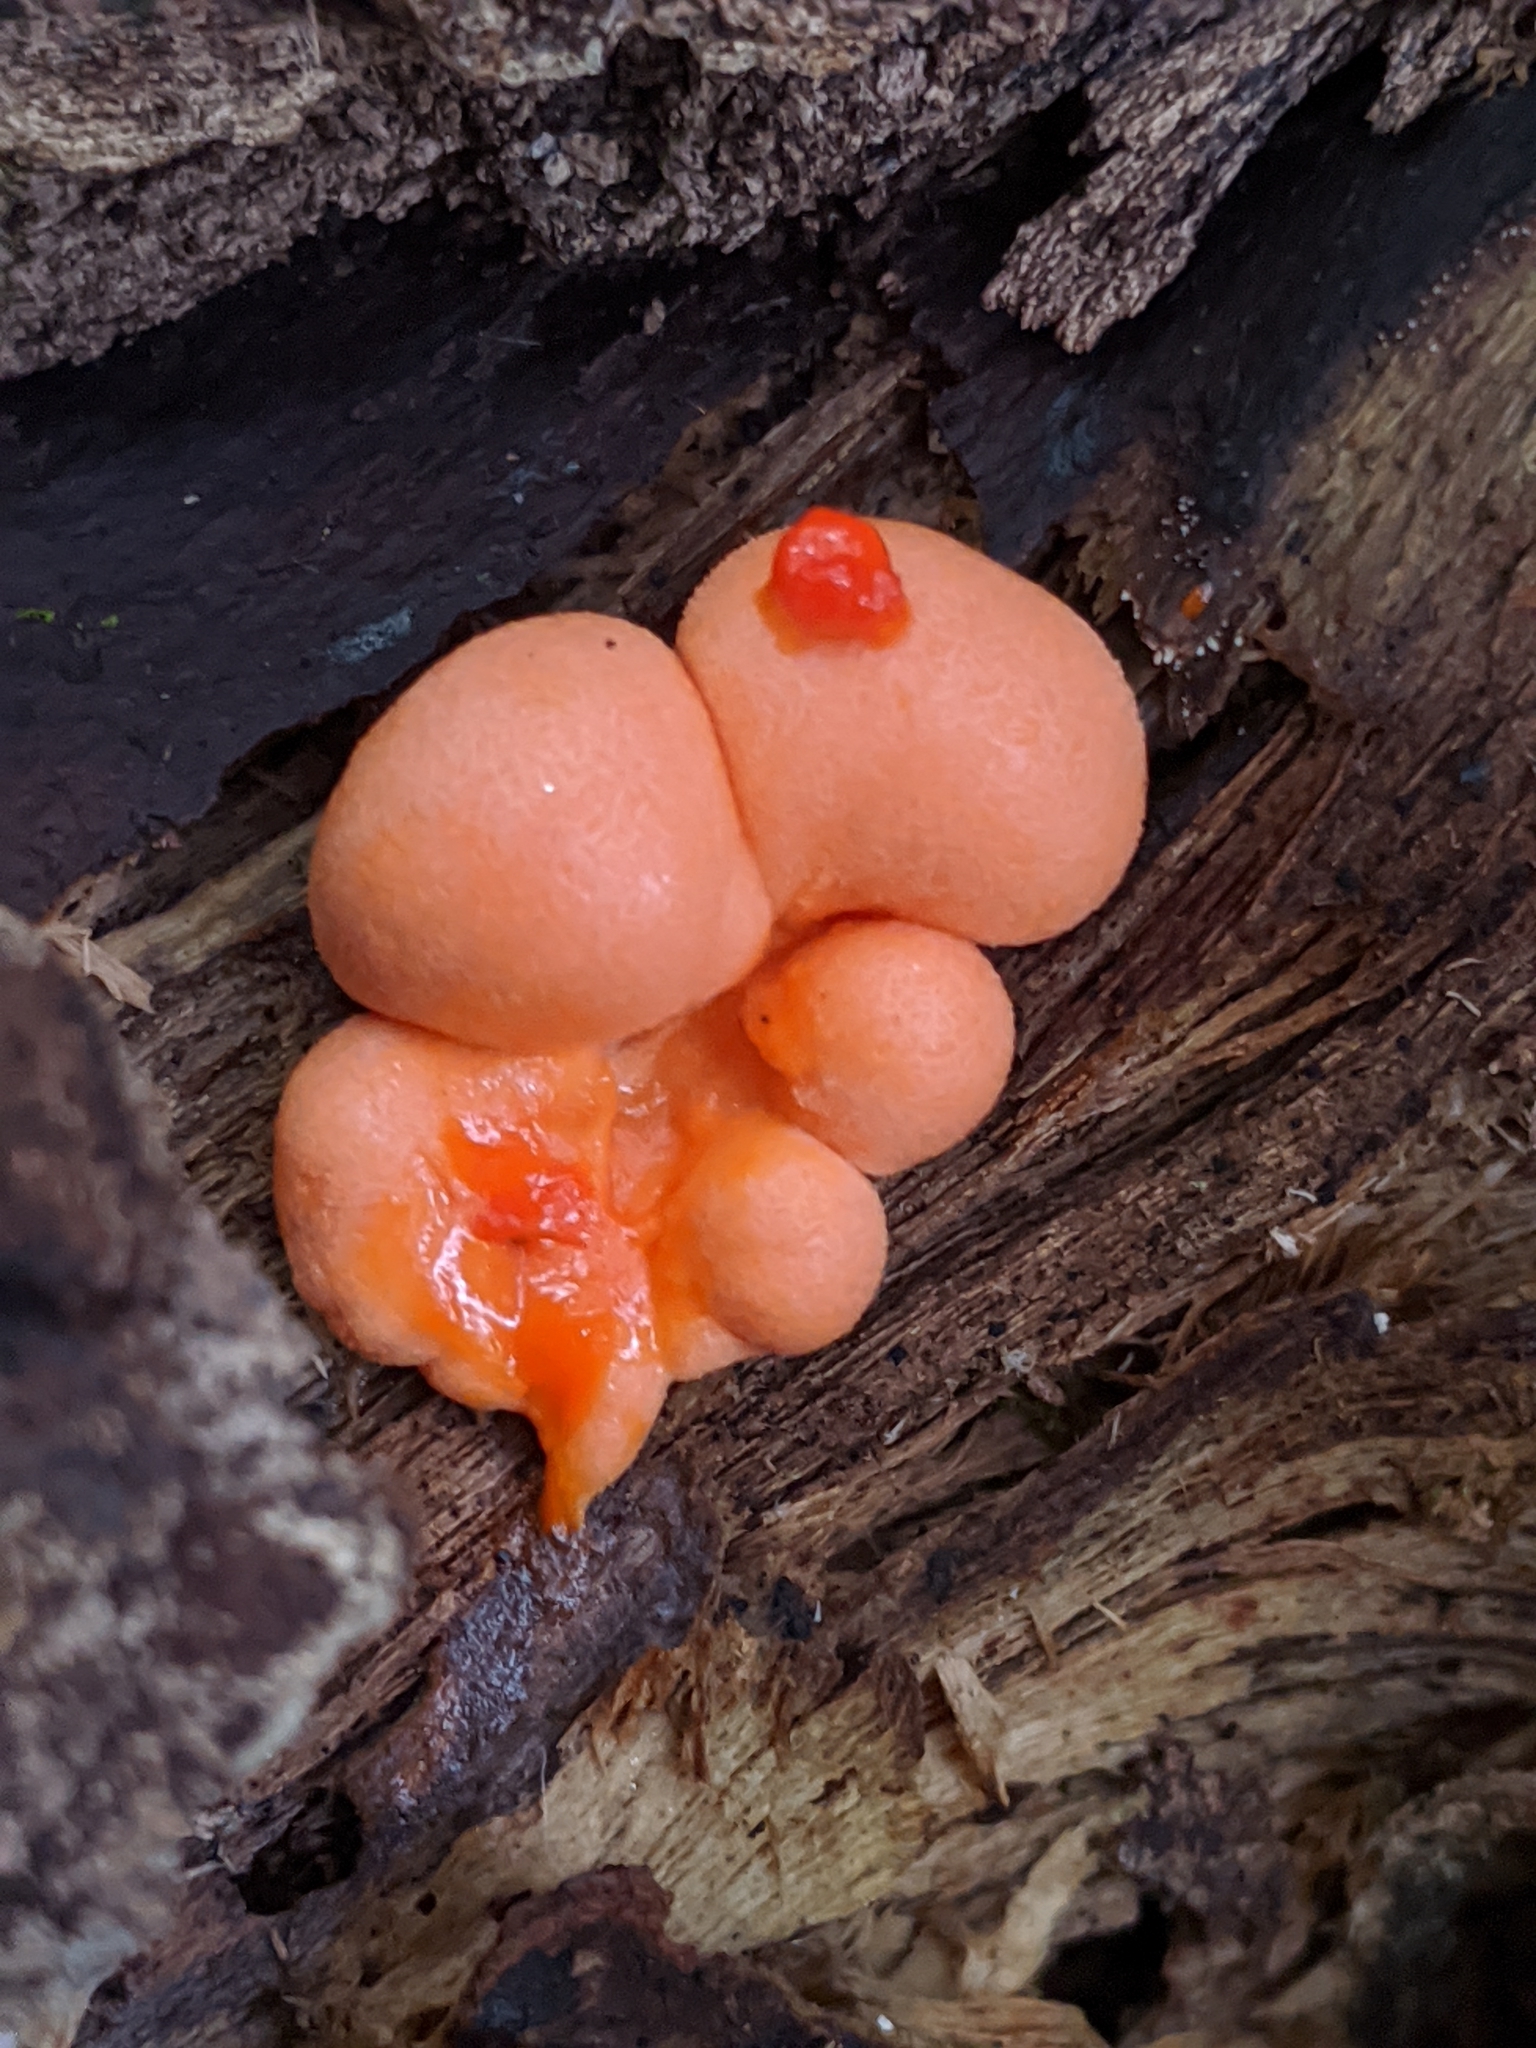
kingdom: Protozoa
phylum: Mycetozoa
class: Myxomycetes
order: Cribrariales
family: Tubiferaceae
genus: Lycogala
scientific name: Lycogala epidendrum
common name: Wolf's milk
